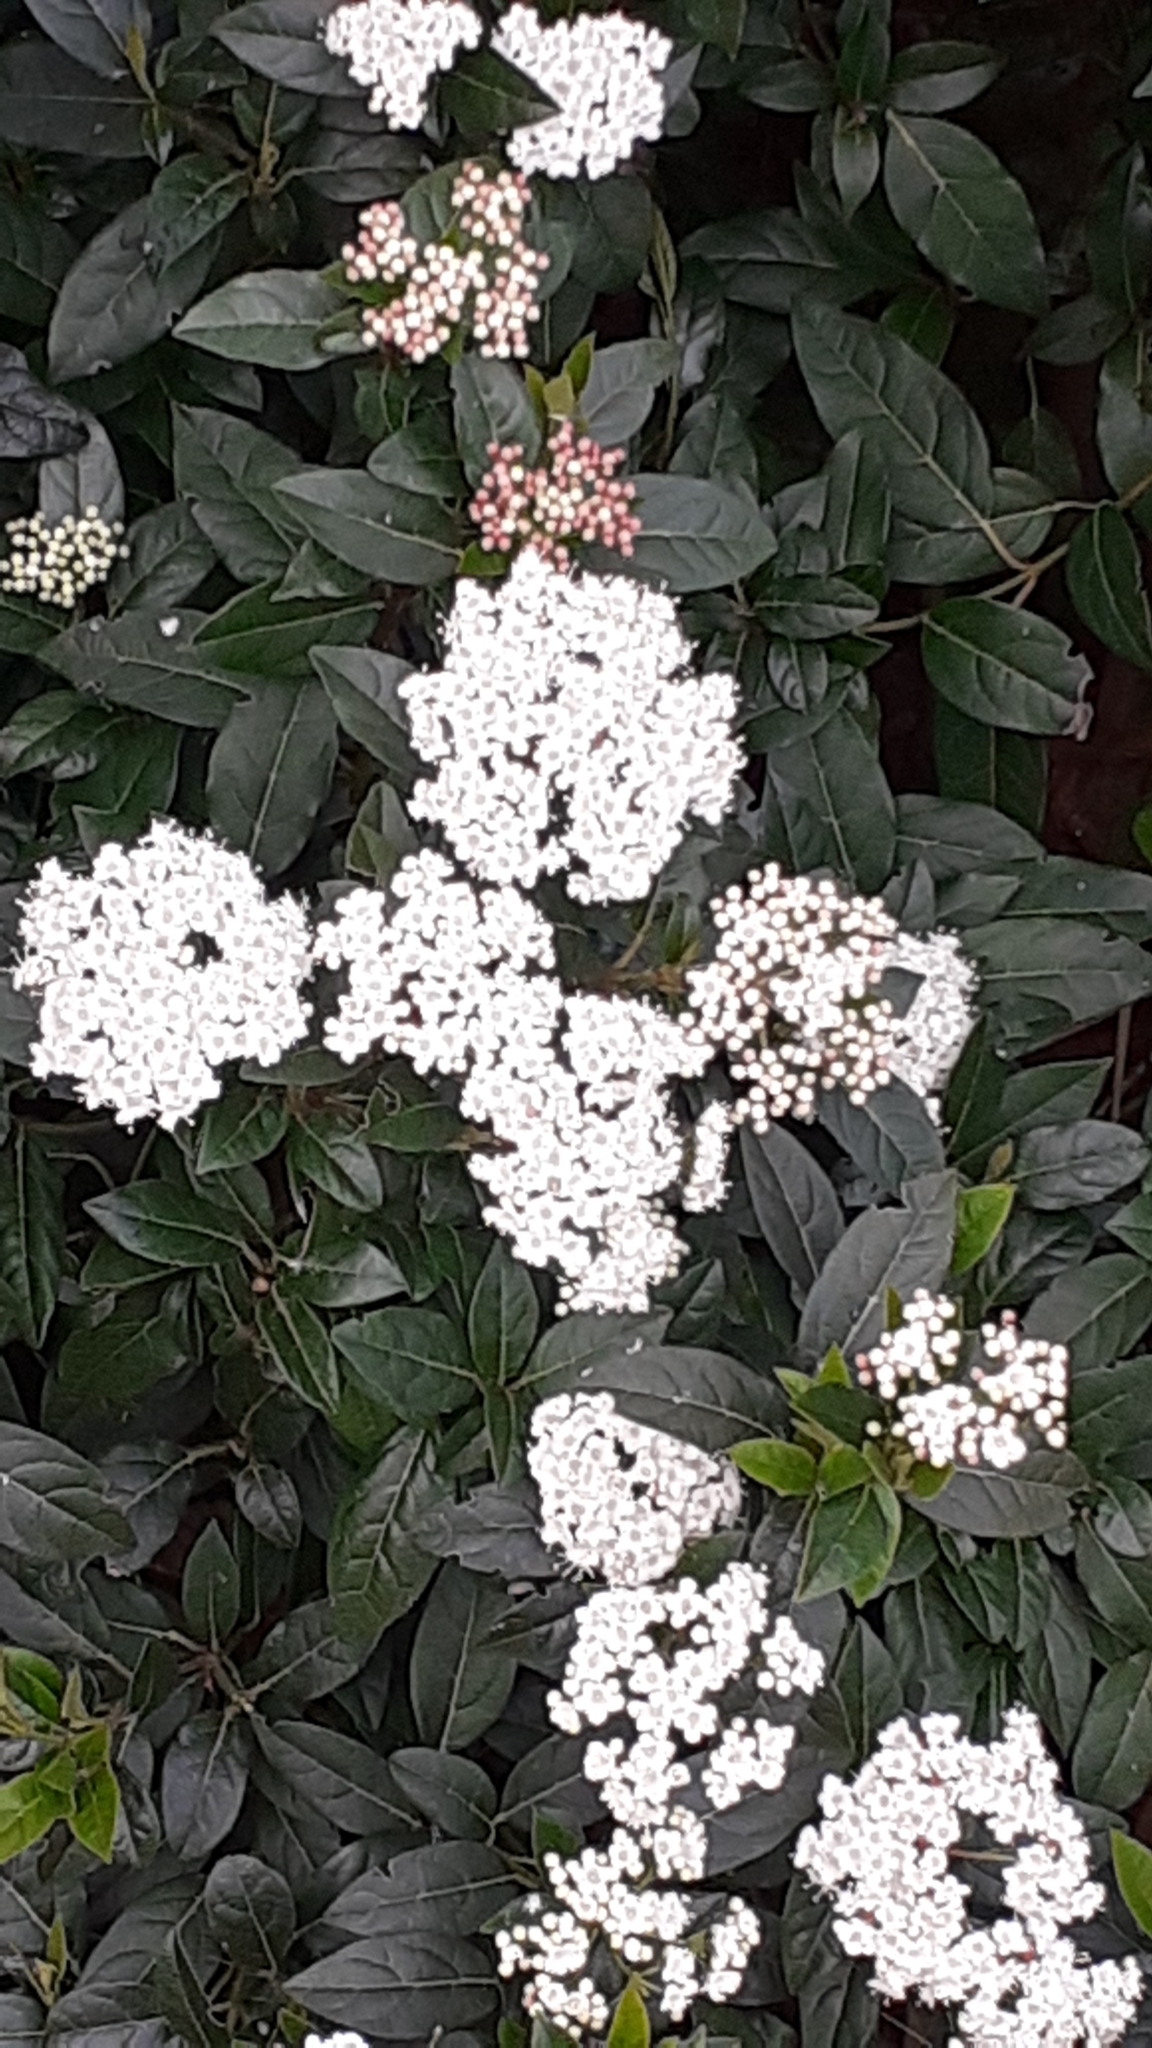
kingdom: Plantae
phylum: Tracheophyta
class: Magnoliopsida
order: Dipsacales
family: Viburnaceae
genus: Viburnum
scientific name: Viburnum tinus
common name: Laurustinus
